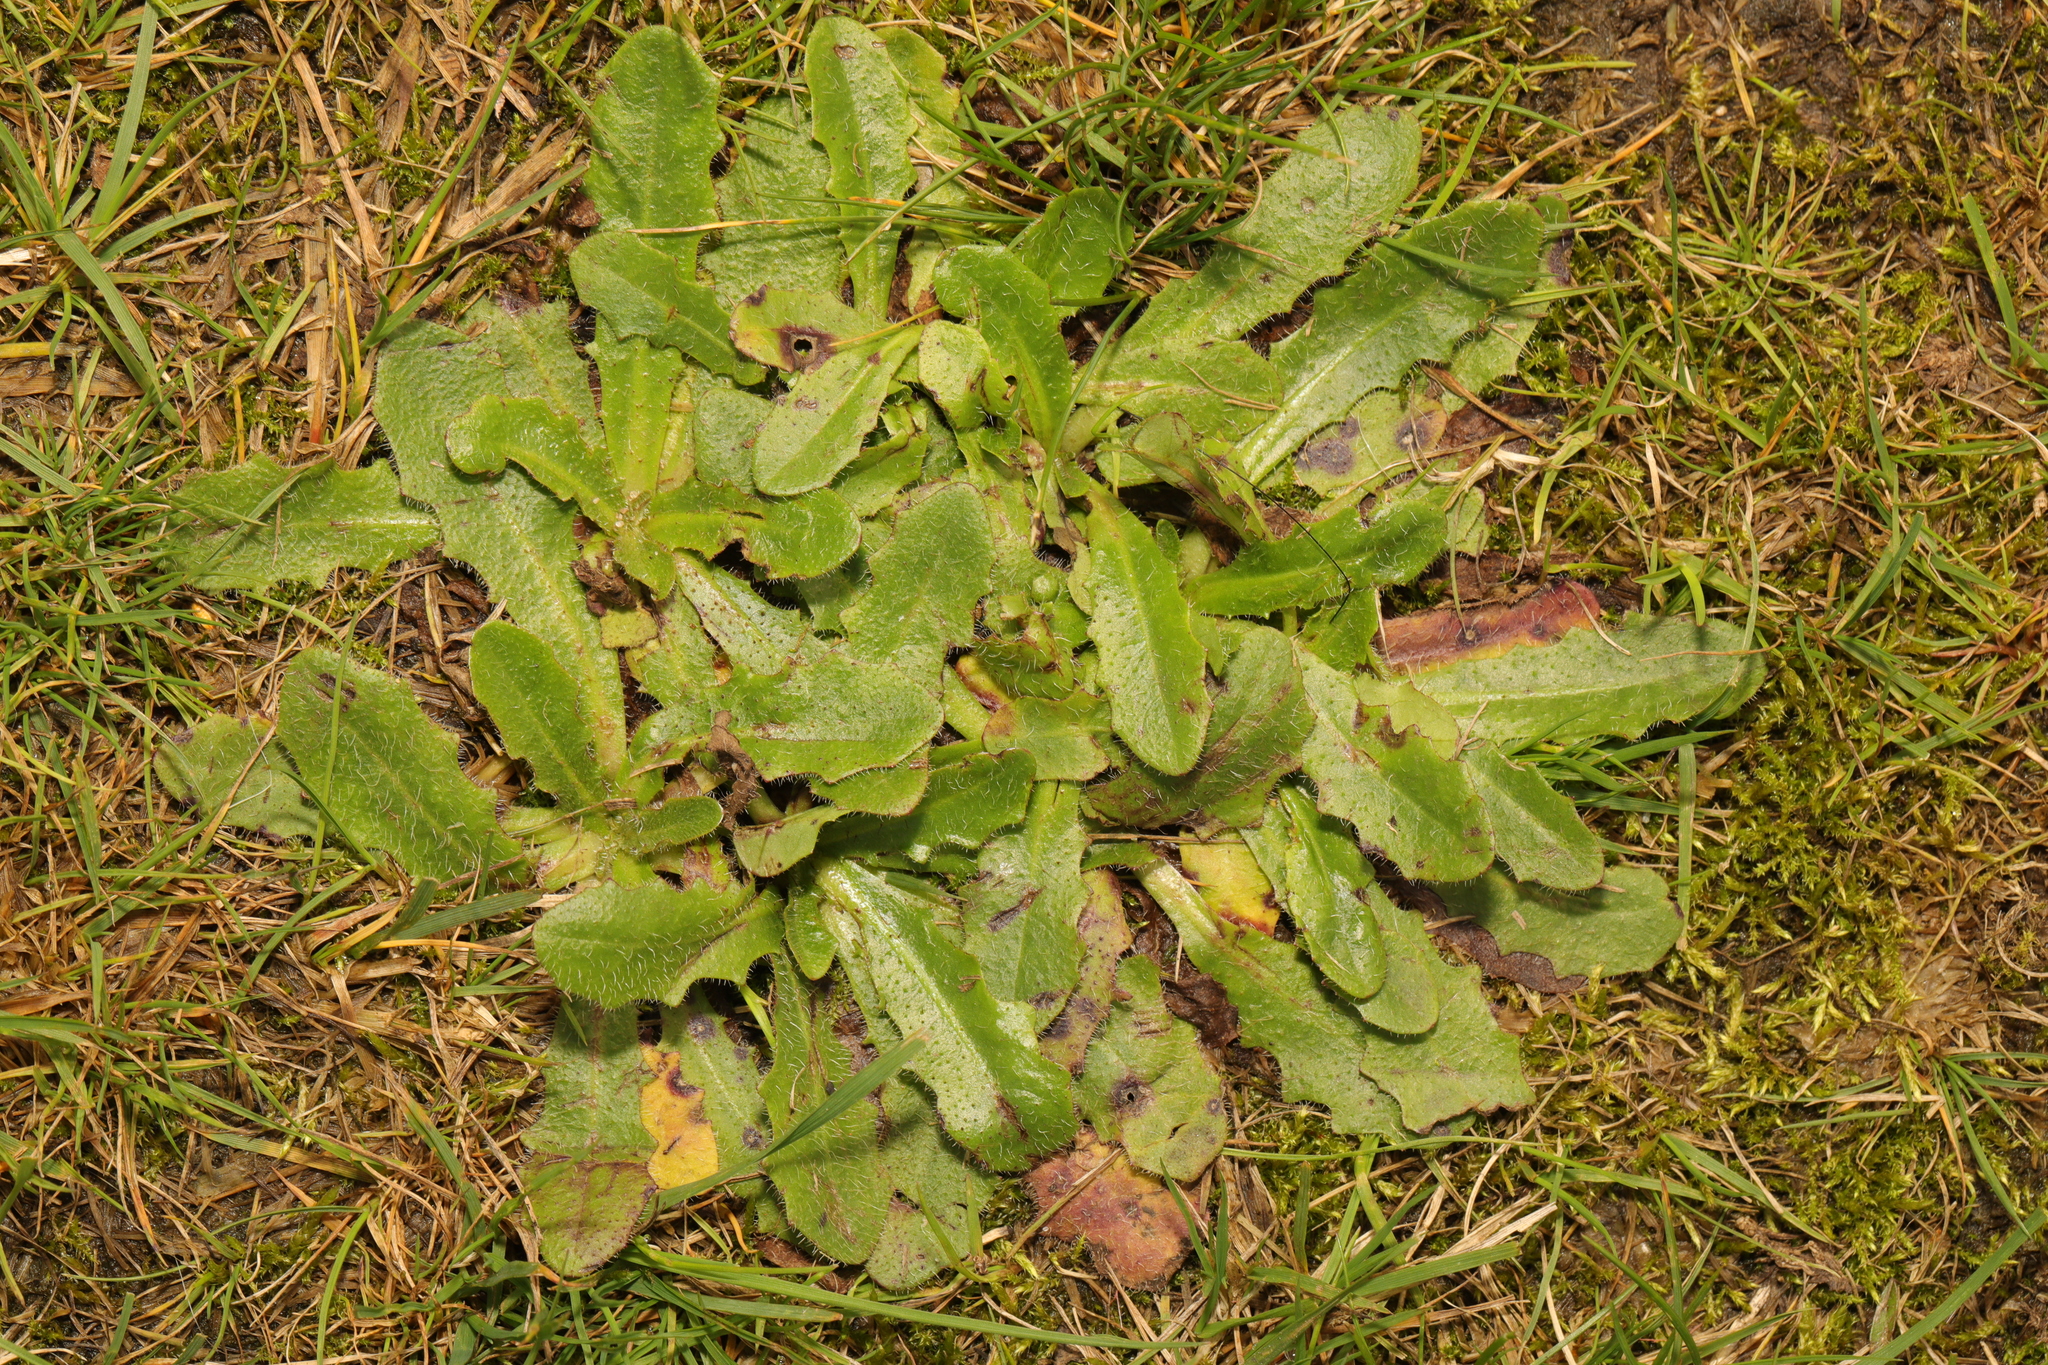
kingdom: Plantae
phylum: Tracheophyta
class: Magnoliopsida
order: Asterales
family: Asteraceae
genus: Hypochaeris
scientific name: Hypochaeris radicata
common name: Flatweed
